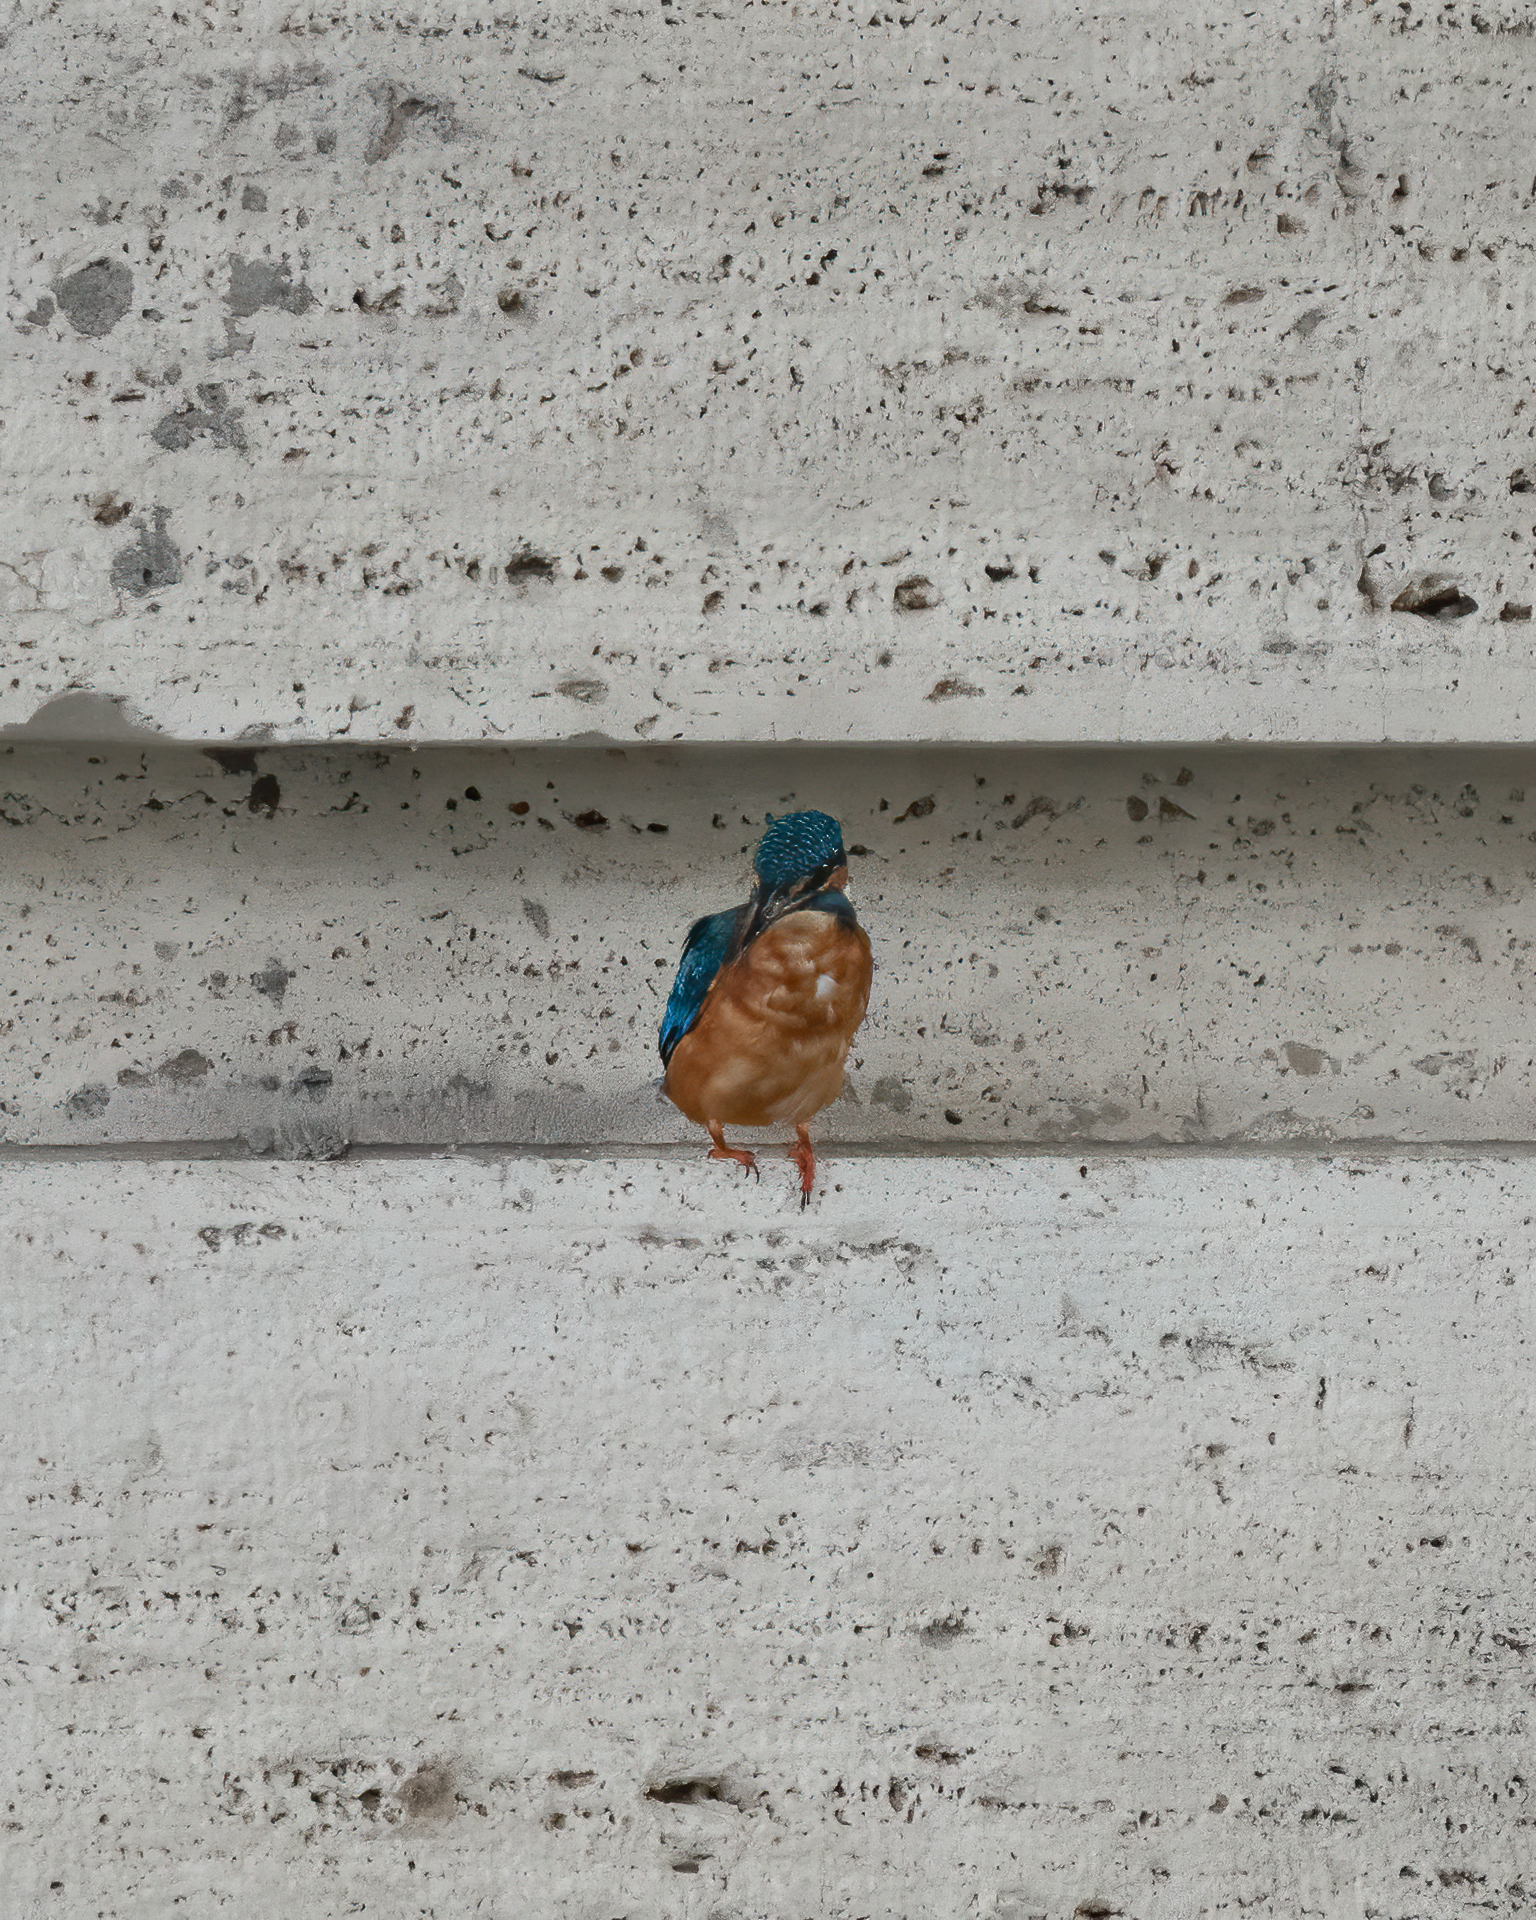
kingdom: Animalia
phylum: Chordata
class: Aves
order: Coraciiformes
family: Alcedinidae
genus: Alcedo
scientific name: Alcedo atthis
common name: Common kingfisher
